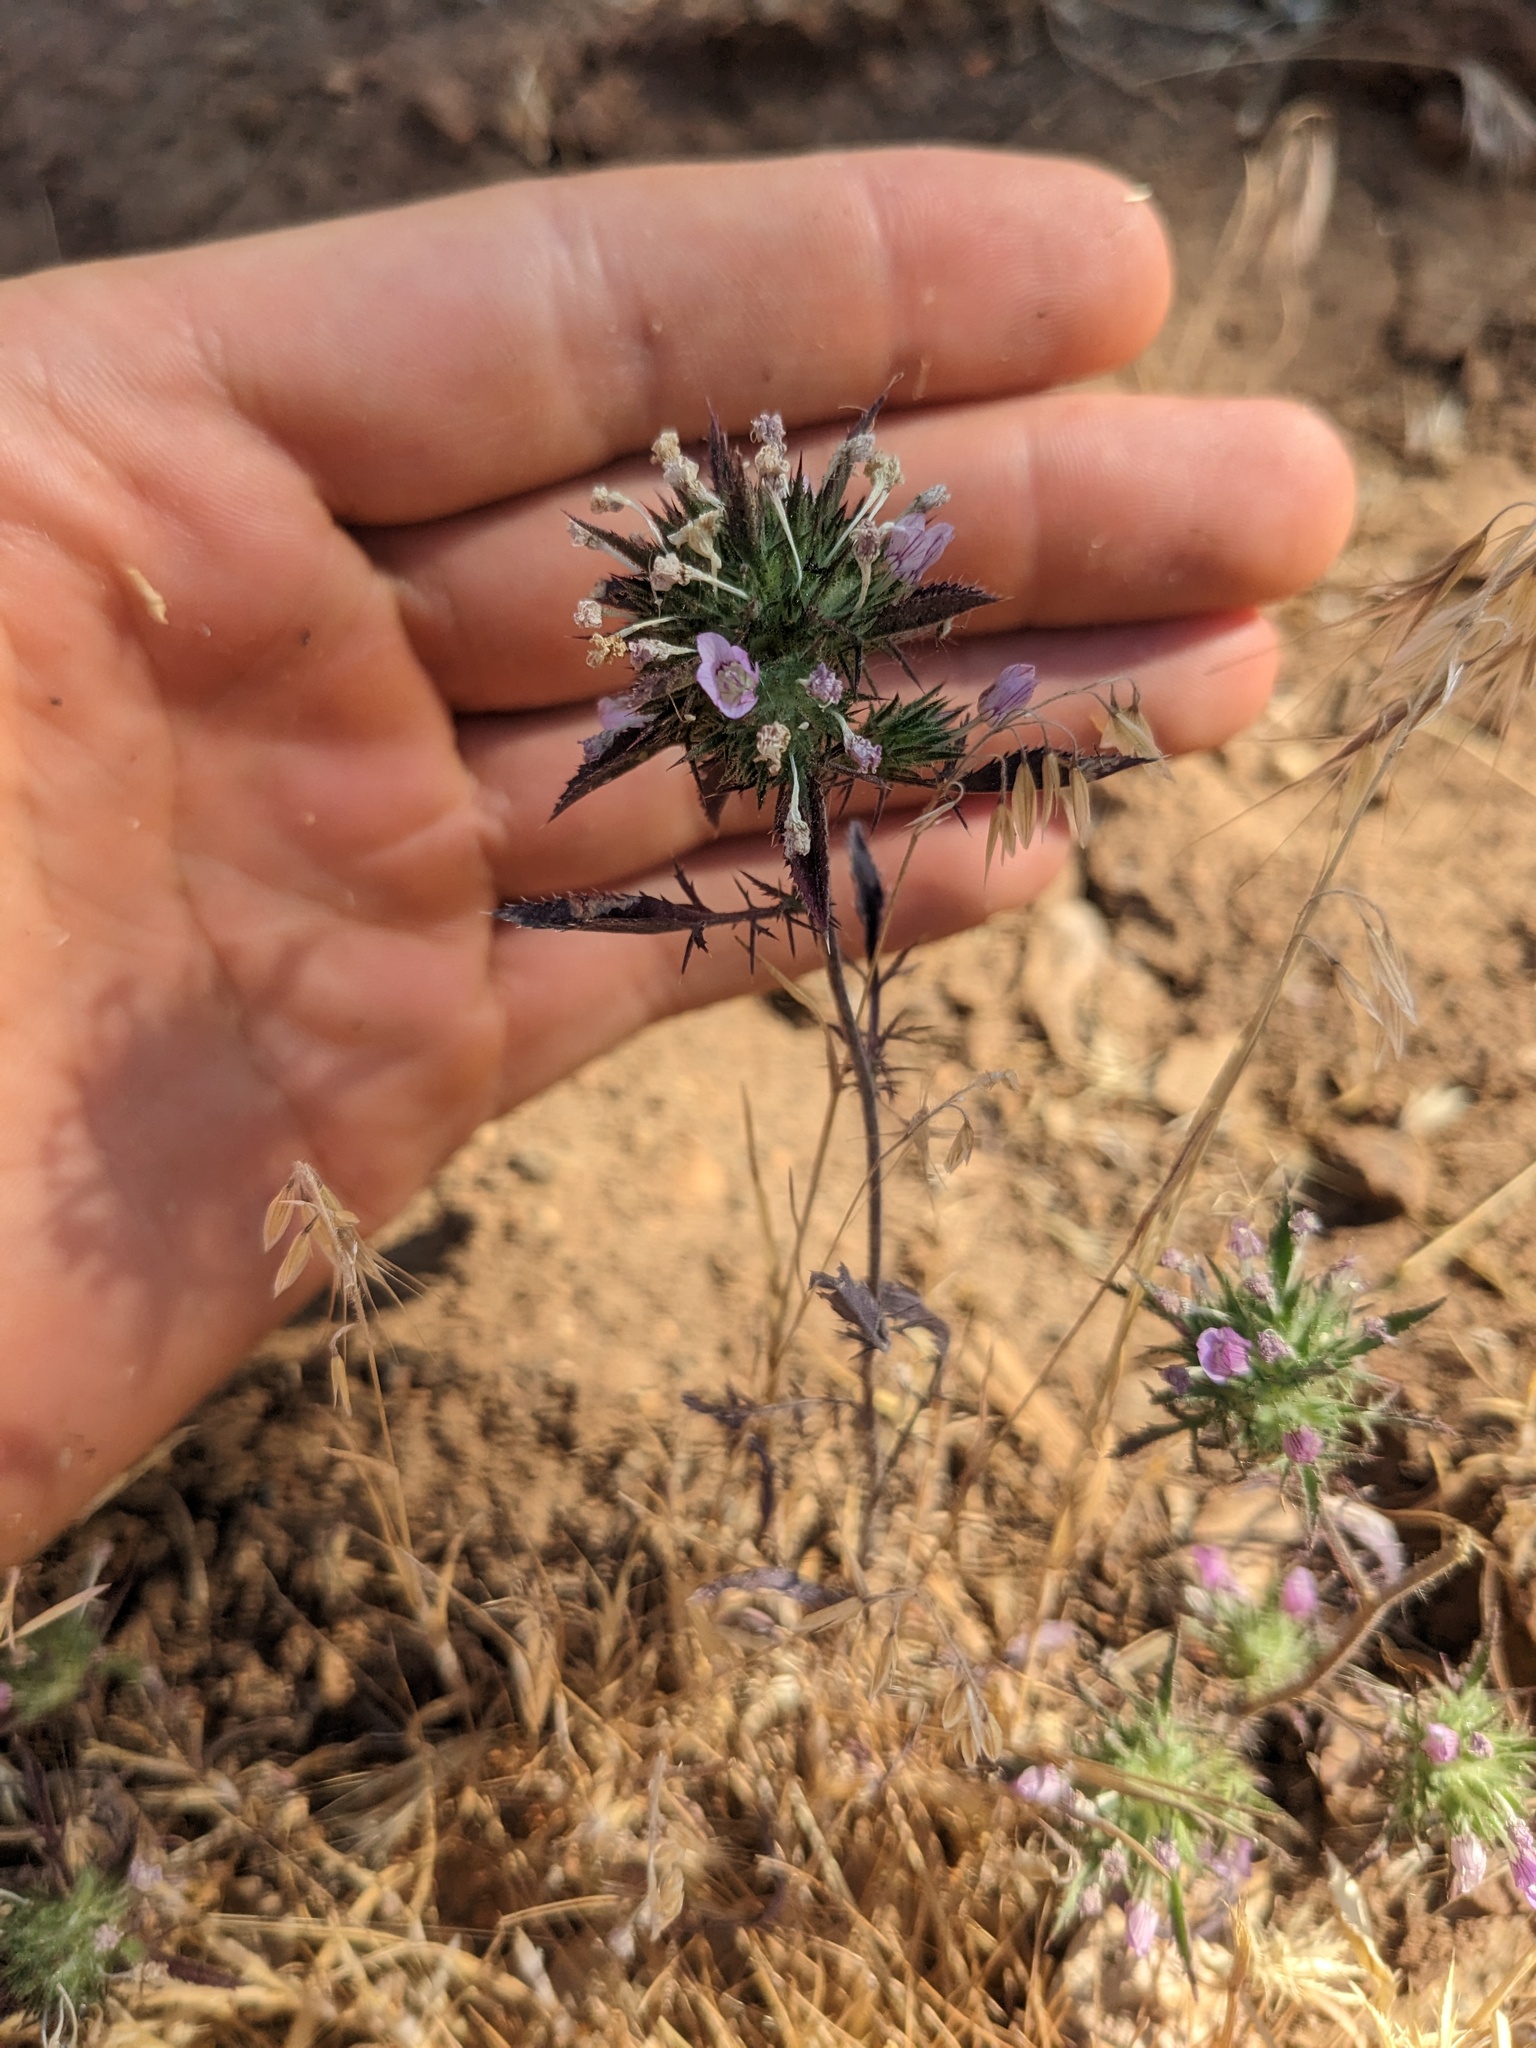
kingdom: Plantae
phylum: Tracheophyta
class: Magnoliopsida
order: Ericales
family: Polemoniaceae
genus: Navarretia
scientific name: Navarretia setiloba
